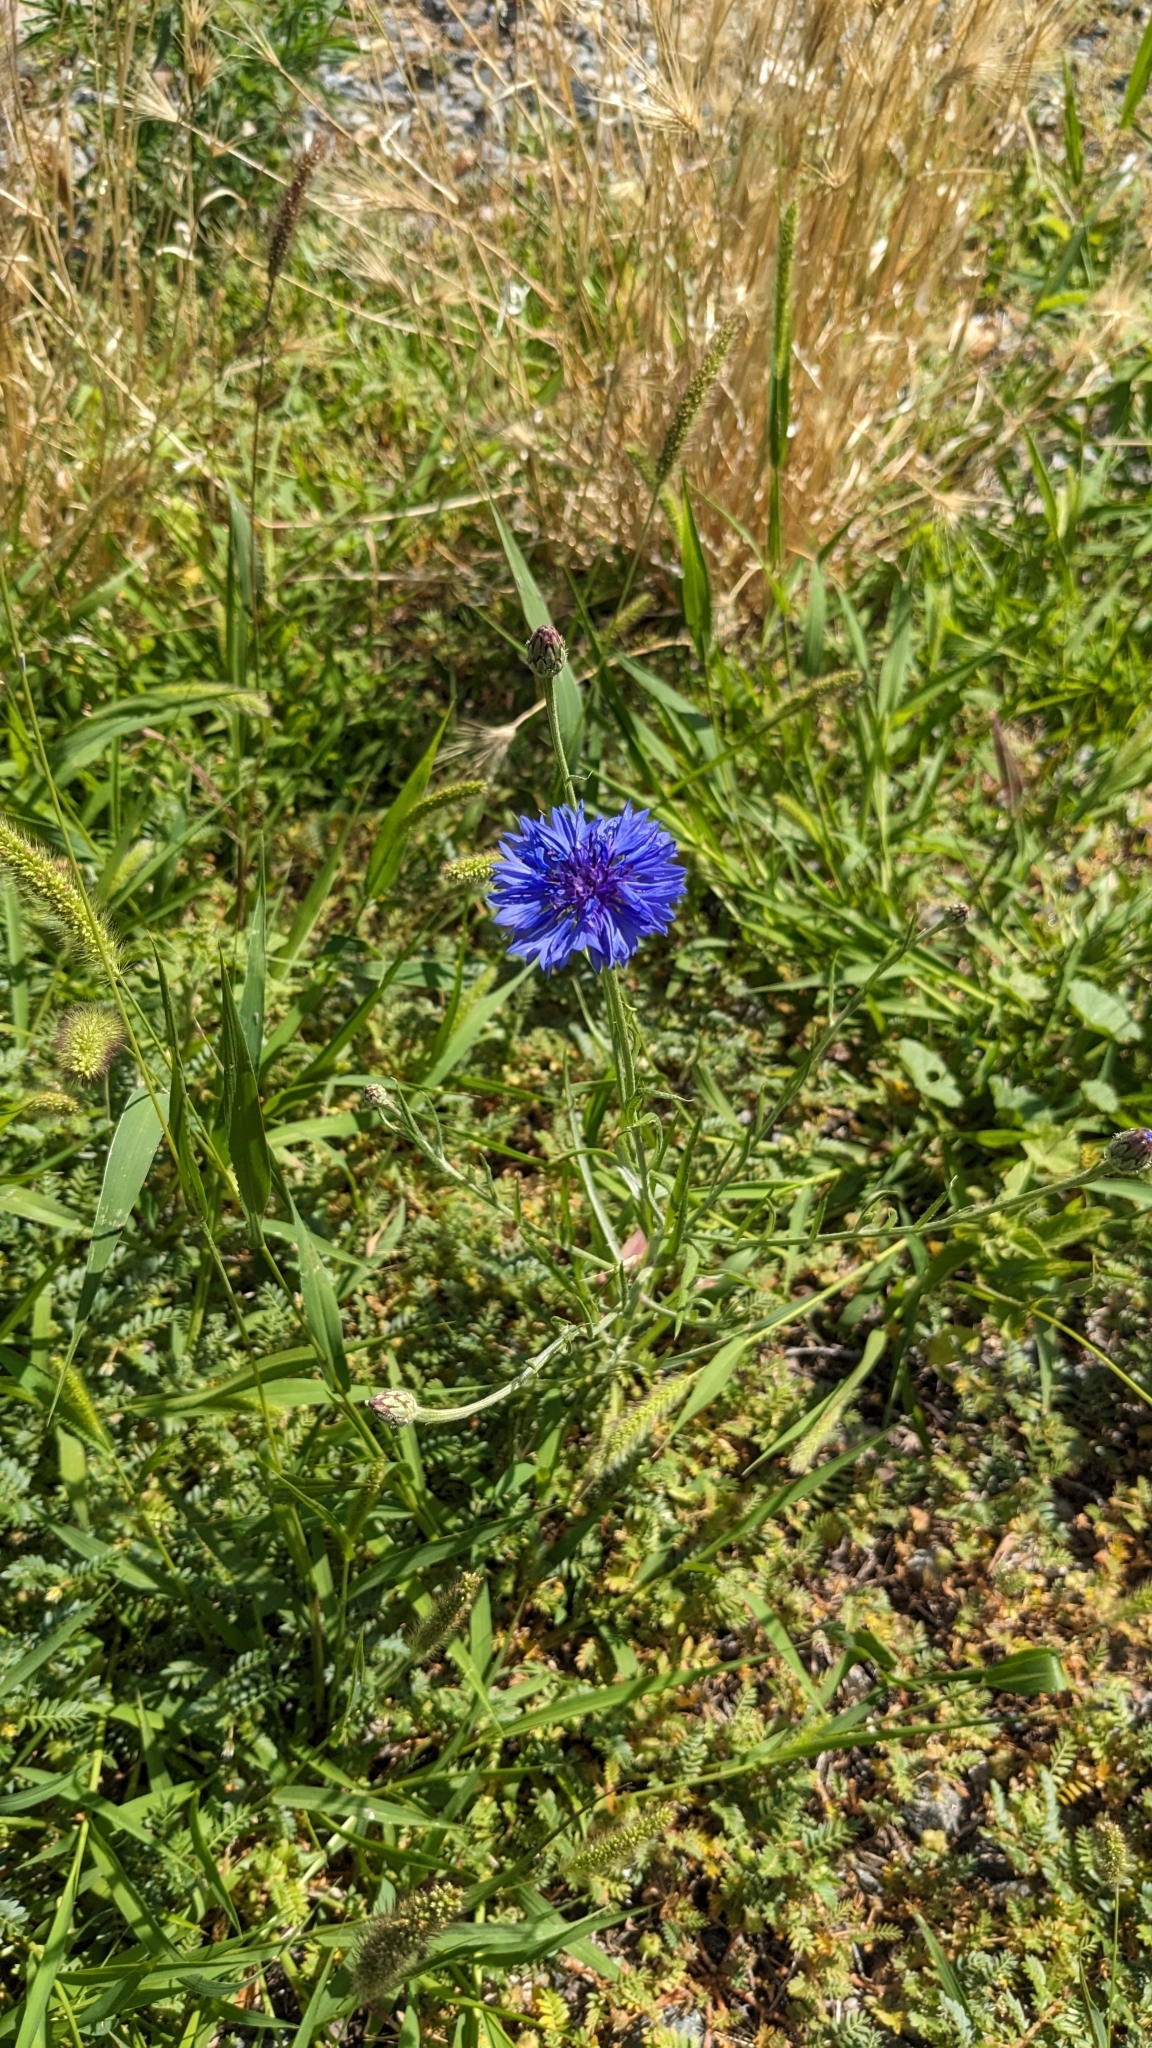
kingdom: Plantae
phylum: Tracheophyta
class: Magnoliopsida
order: Asterales
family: Asteraceae
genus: Centaurea
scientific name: Centaurea cyanus
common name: Cornflower
